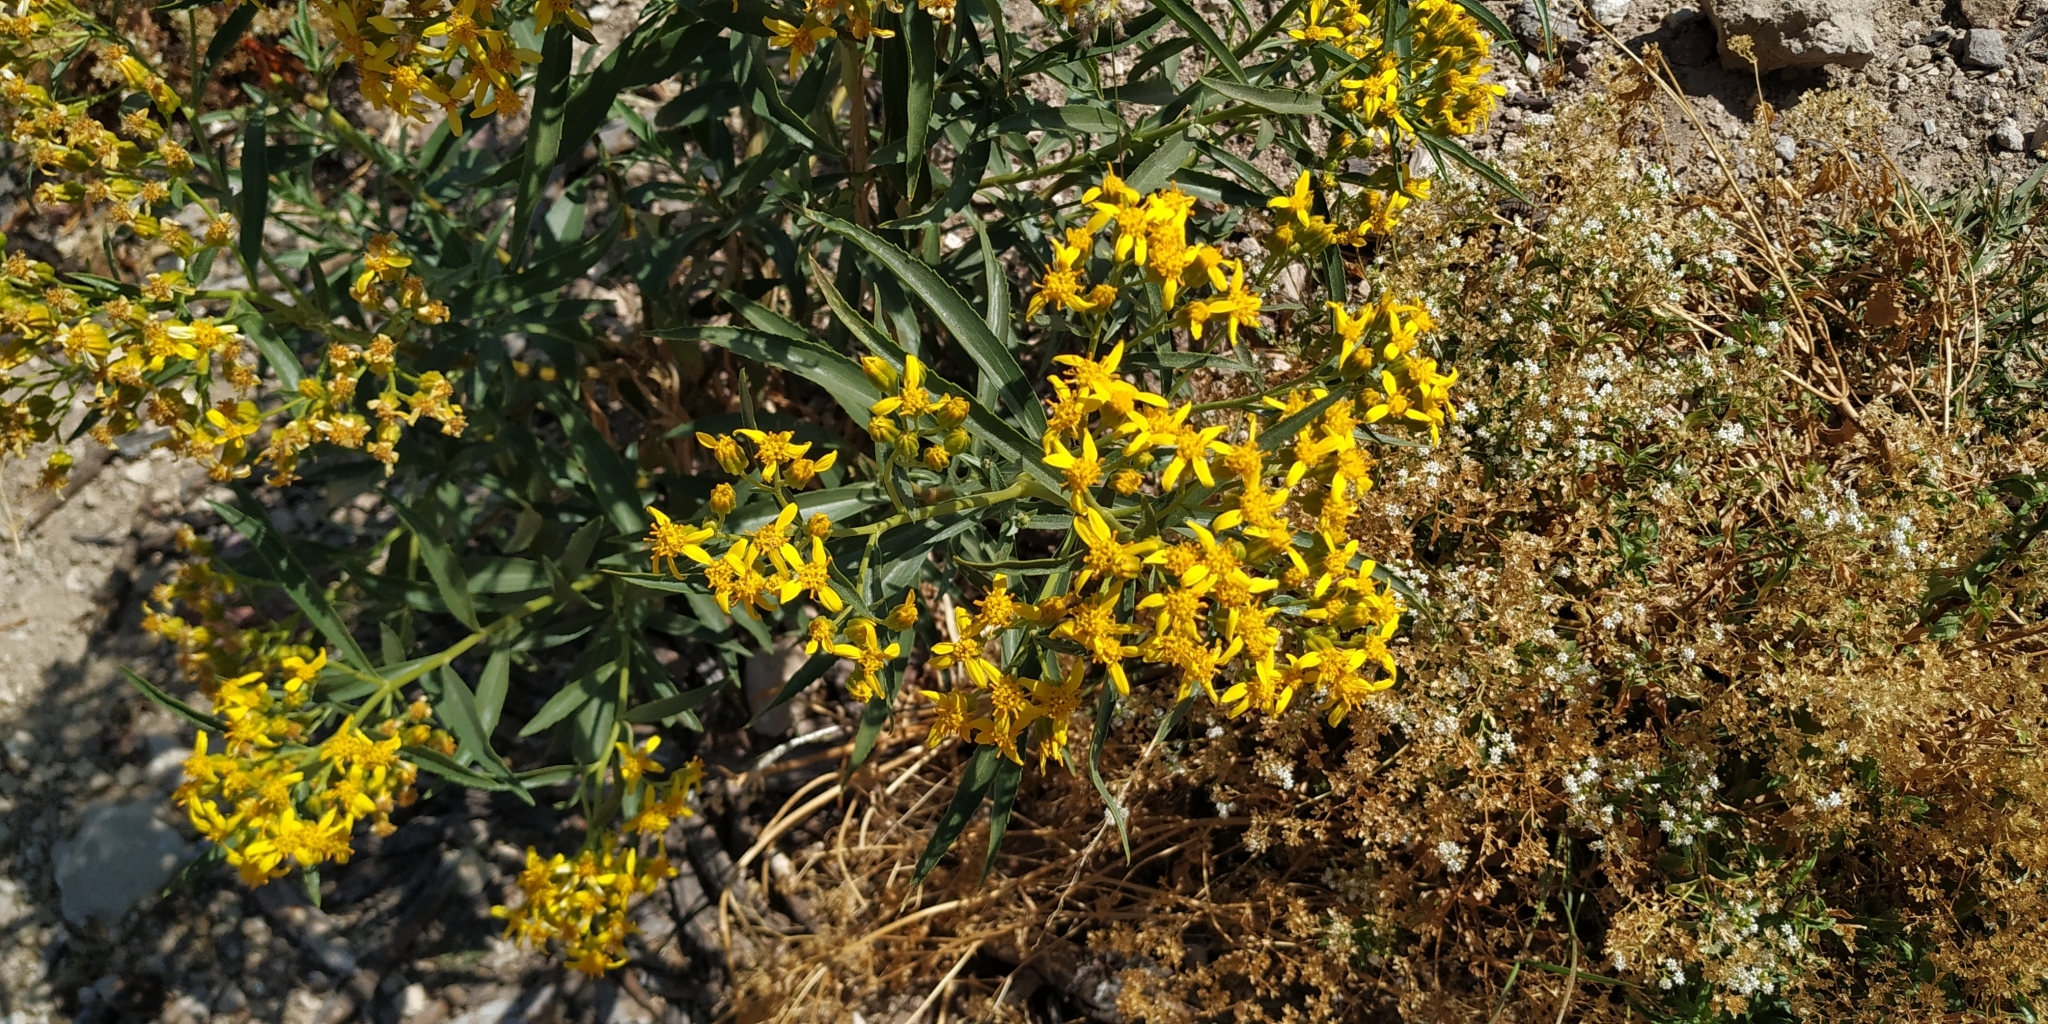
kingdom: Plantae
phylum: Tracheophyta
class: Magnoliopsida
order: Asterales
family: Asteraceae
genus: Barkleyanthus
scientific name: Barkleyanthus salicifolius
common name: Willow ragwort
